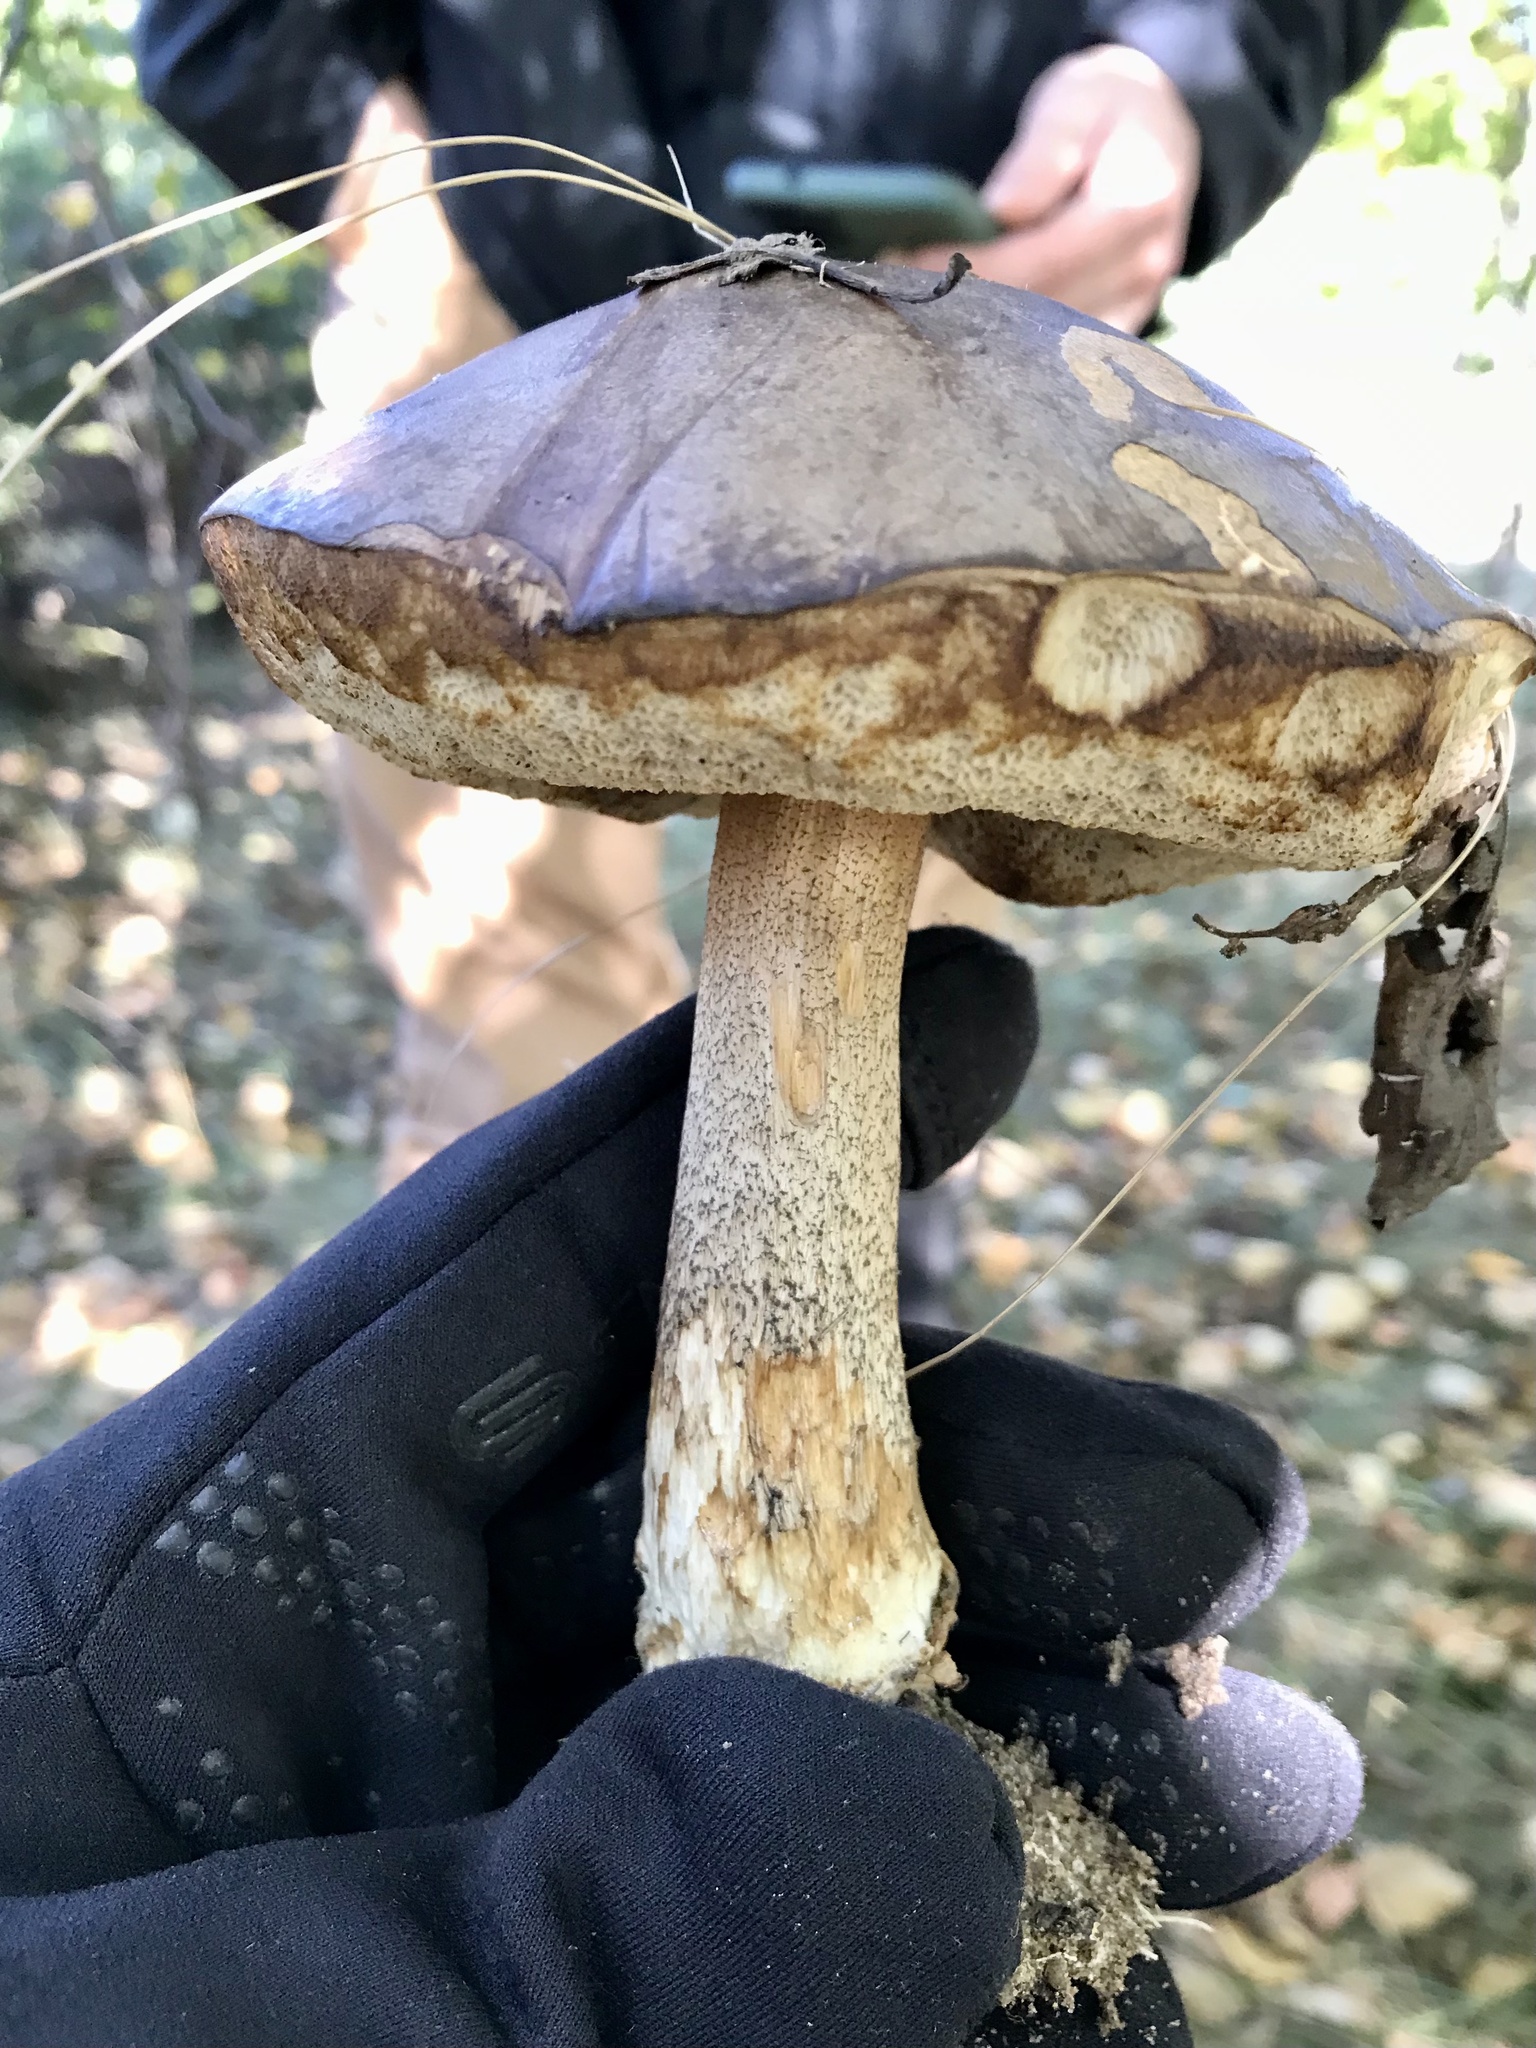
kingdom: Fungi
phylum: Basidiomycota
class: Agaricomycetes
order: Boletales
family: Boletaceae
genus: Leccinum
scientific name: Leccinum scabrum
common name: Blushing bolete
